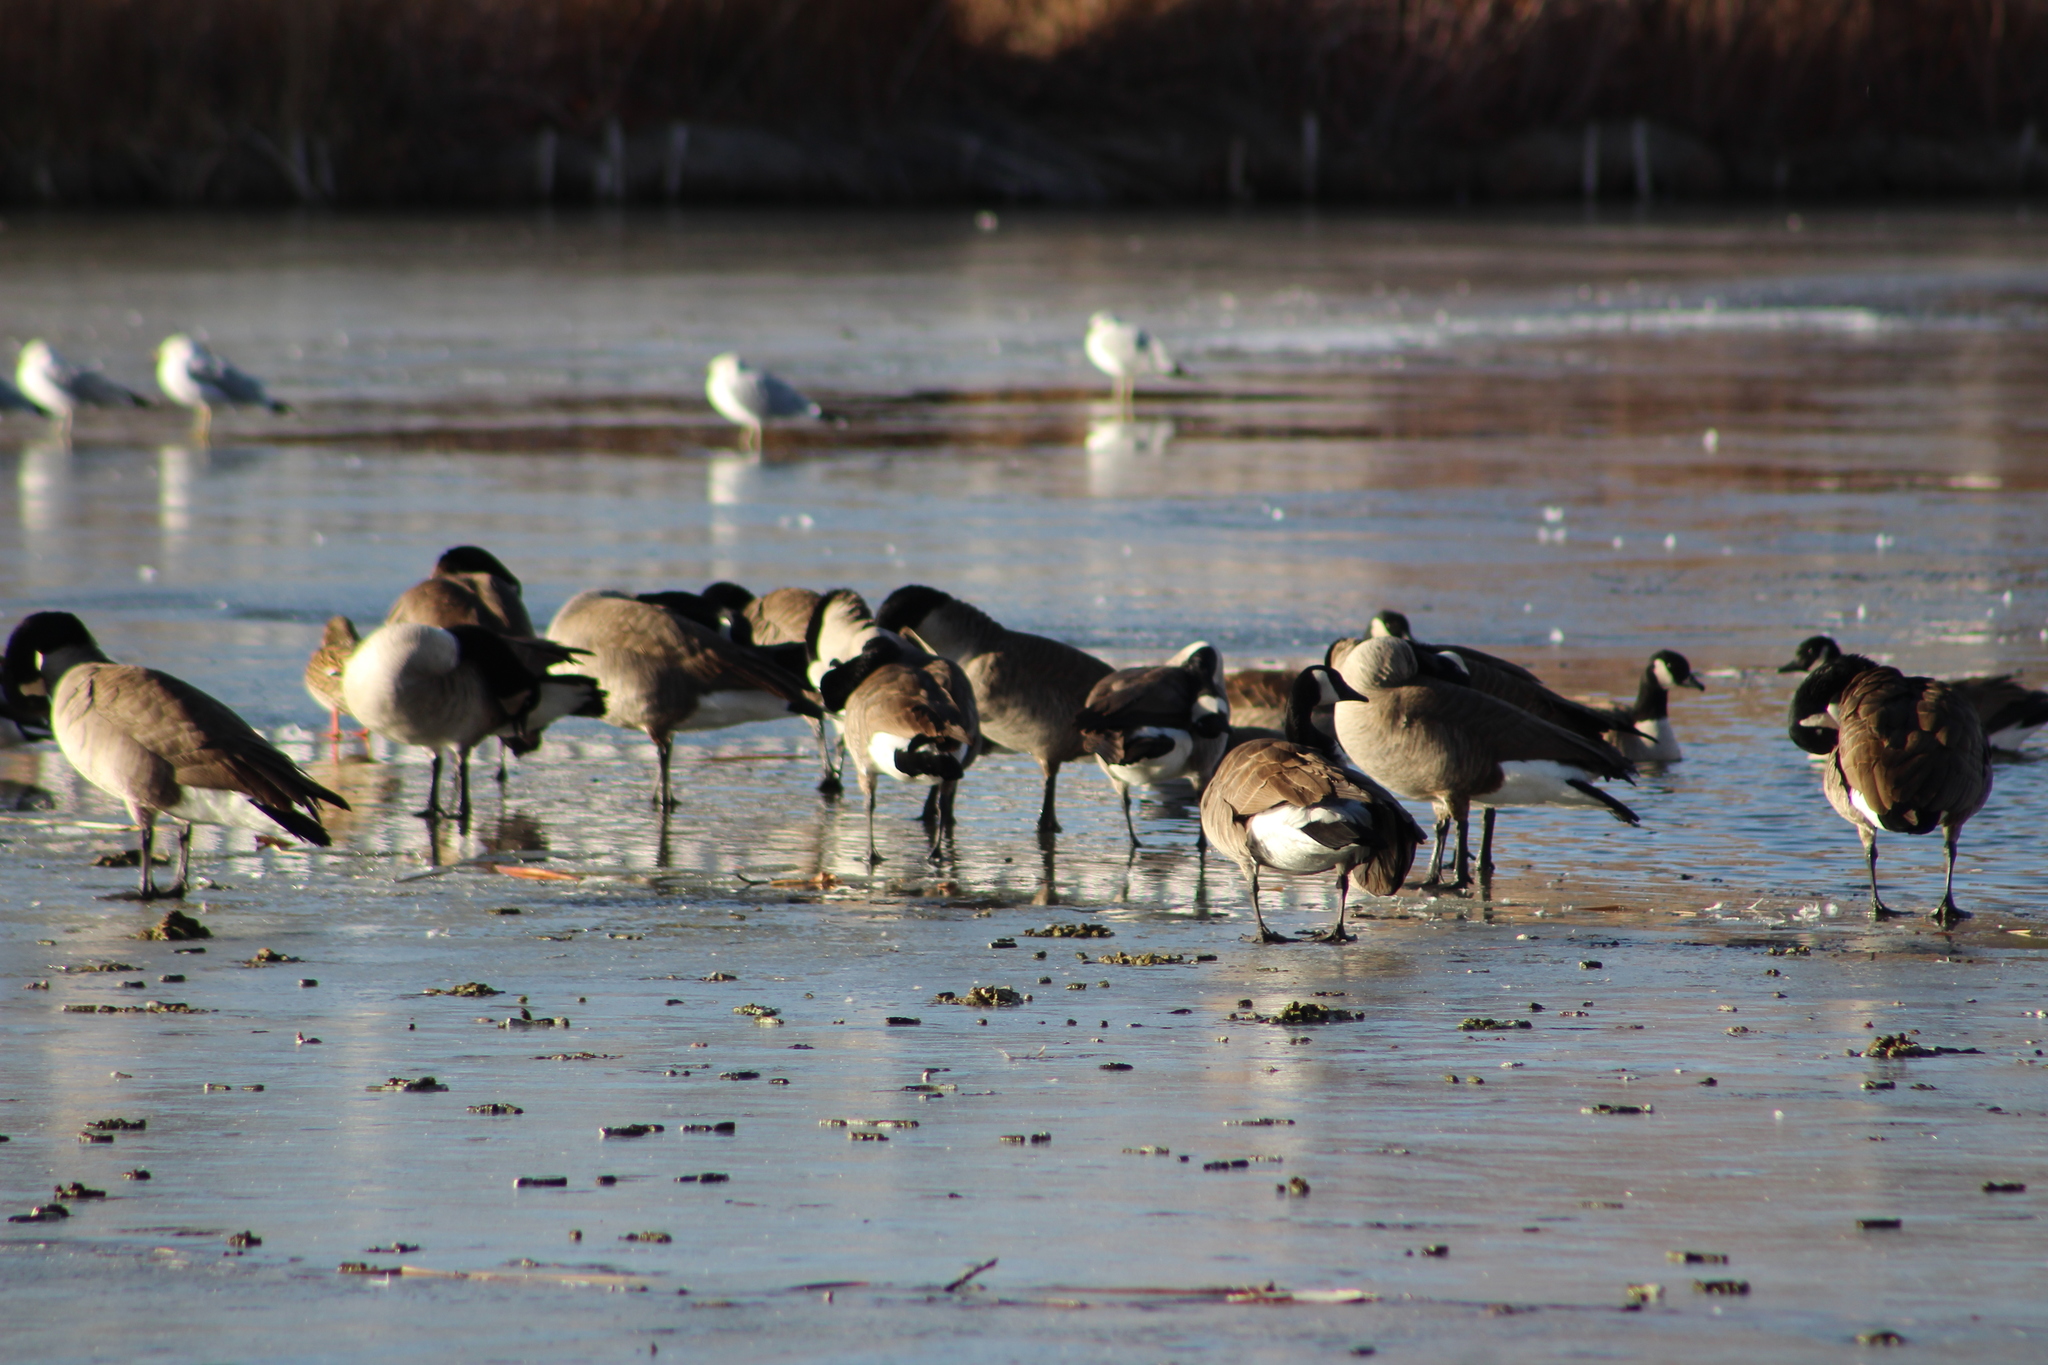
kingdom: Animalia
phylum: Chordata
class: Aves
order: Anseriformes
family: Anatidae
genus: Branta
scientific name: Branta canadensis
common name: Canada goose
